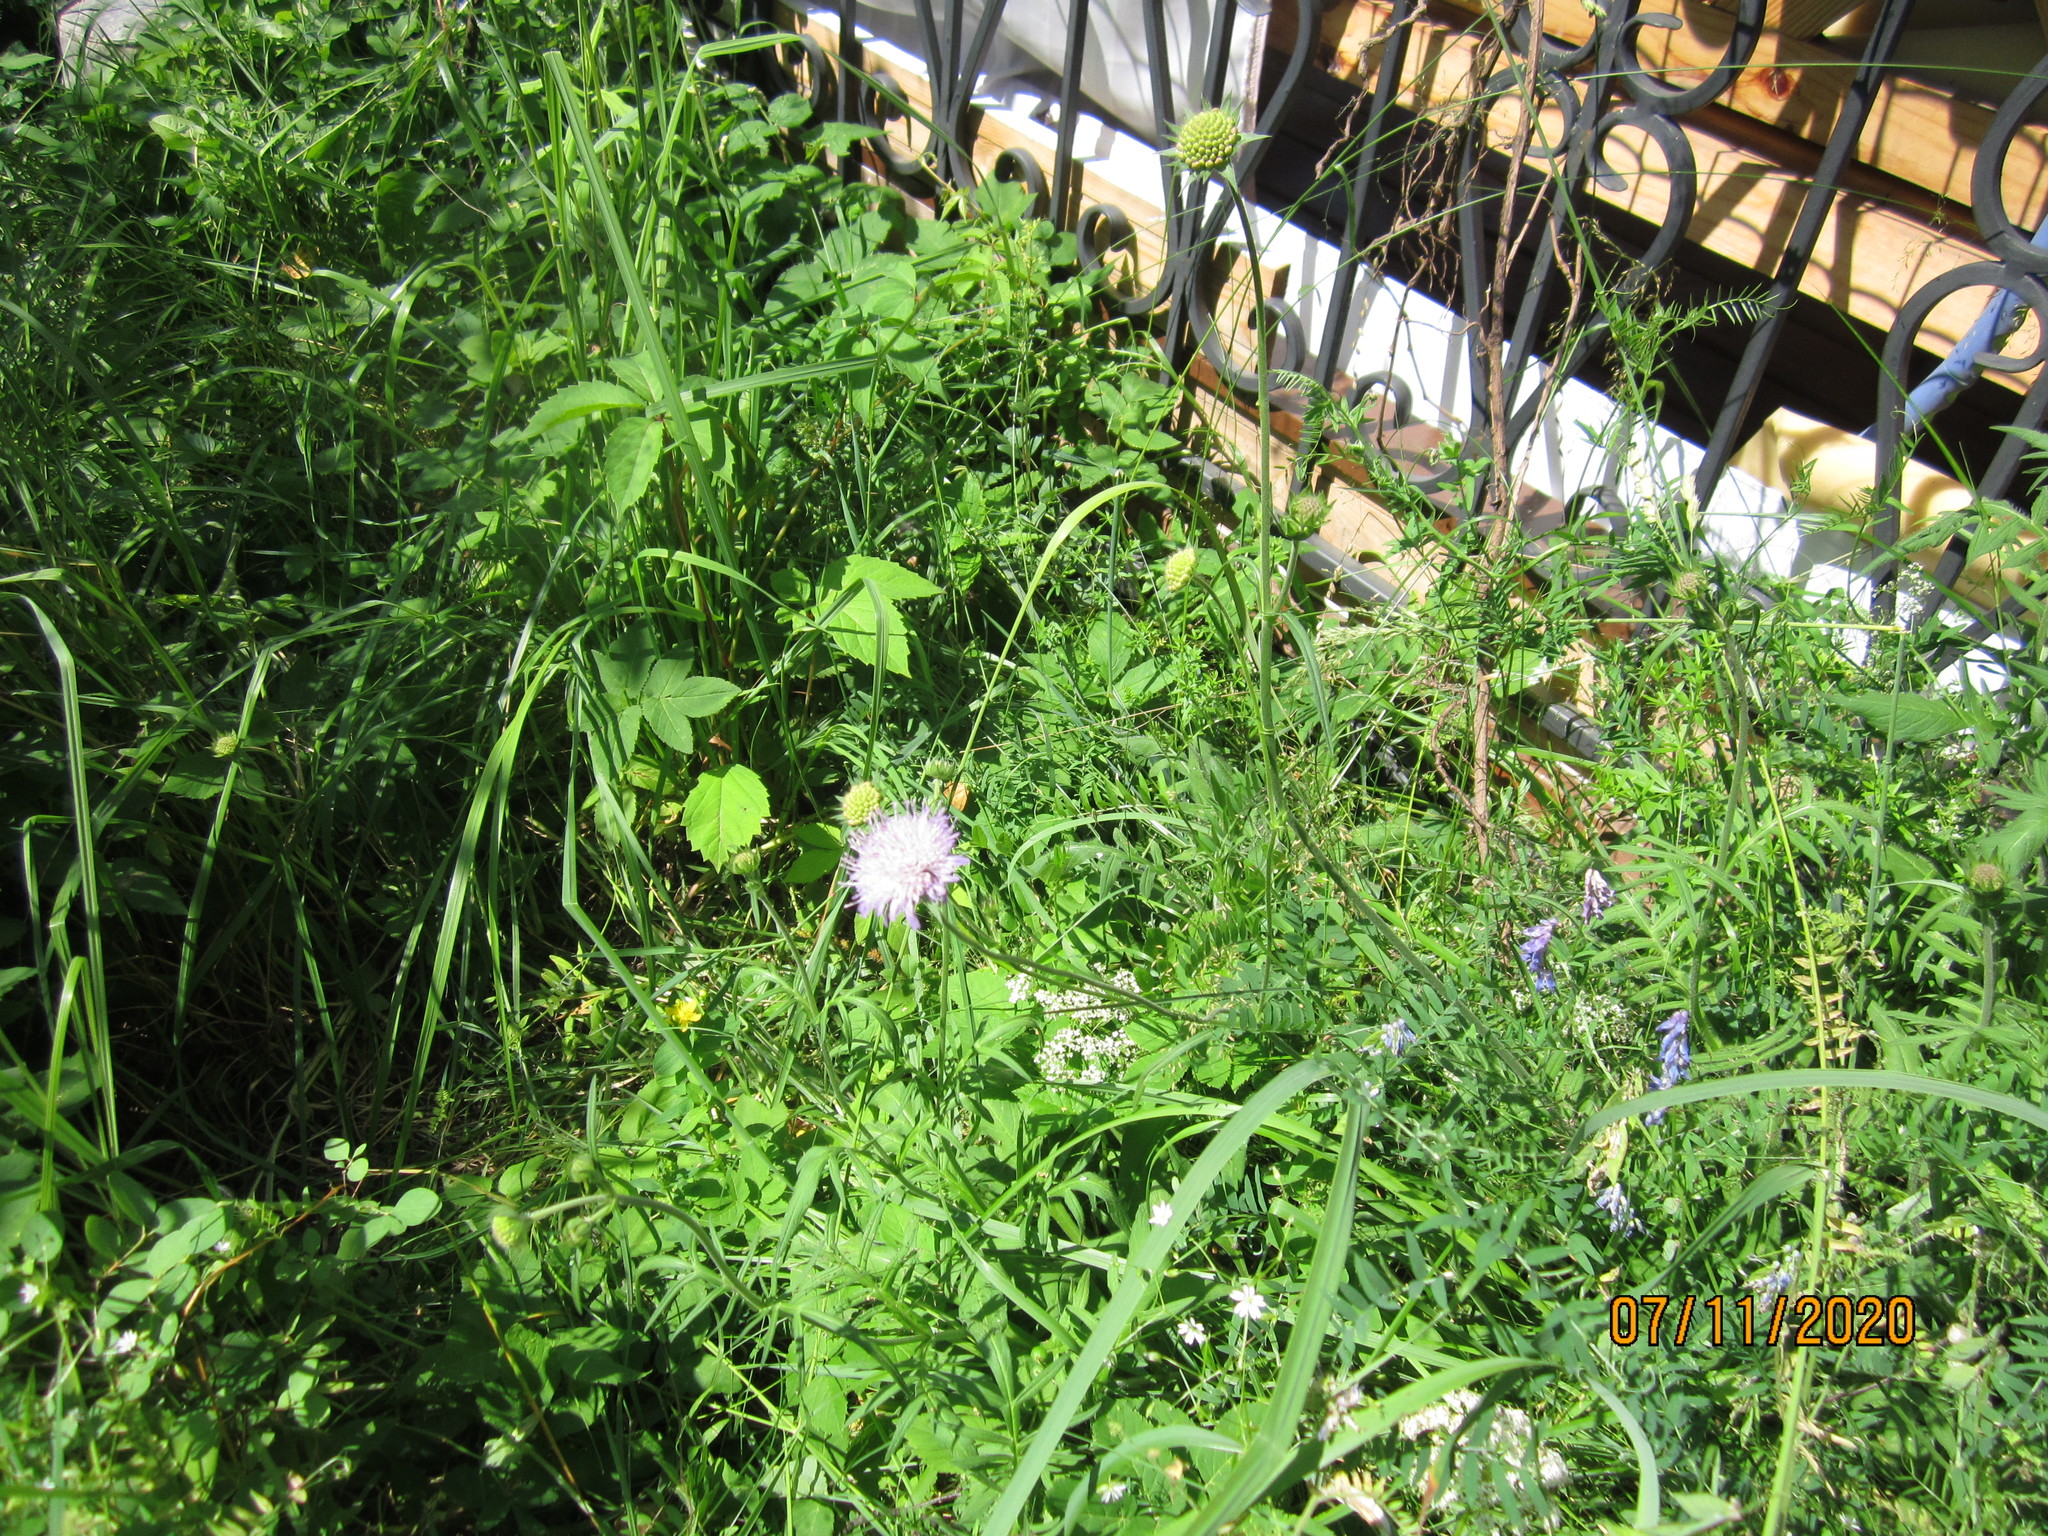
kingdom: Plantae
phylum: Tracheophyta
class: Magnoliopsida
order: Dipsacales
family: Caprifoliaceae
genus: Knautia
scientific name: Knautia arvensis
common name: Field scabiosa
